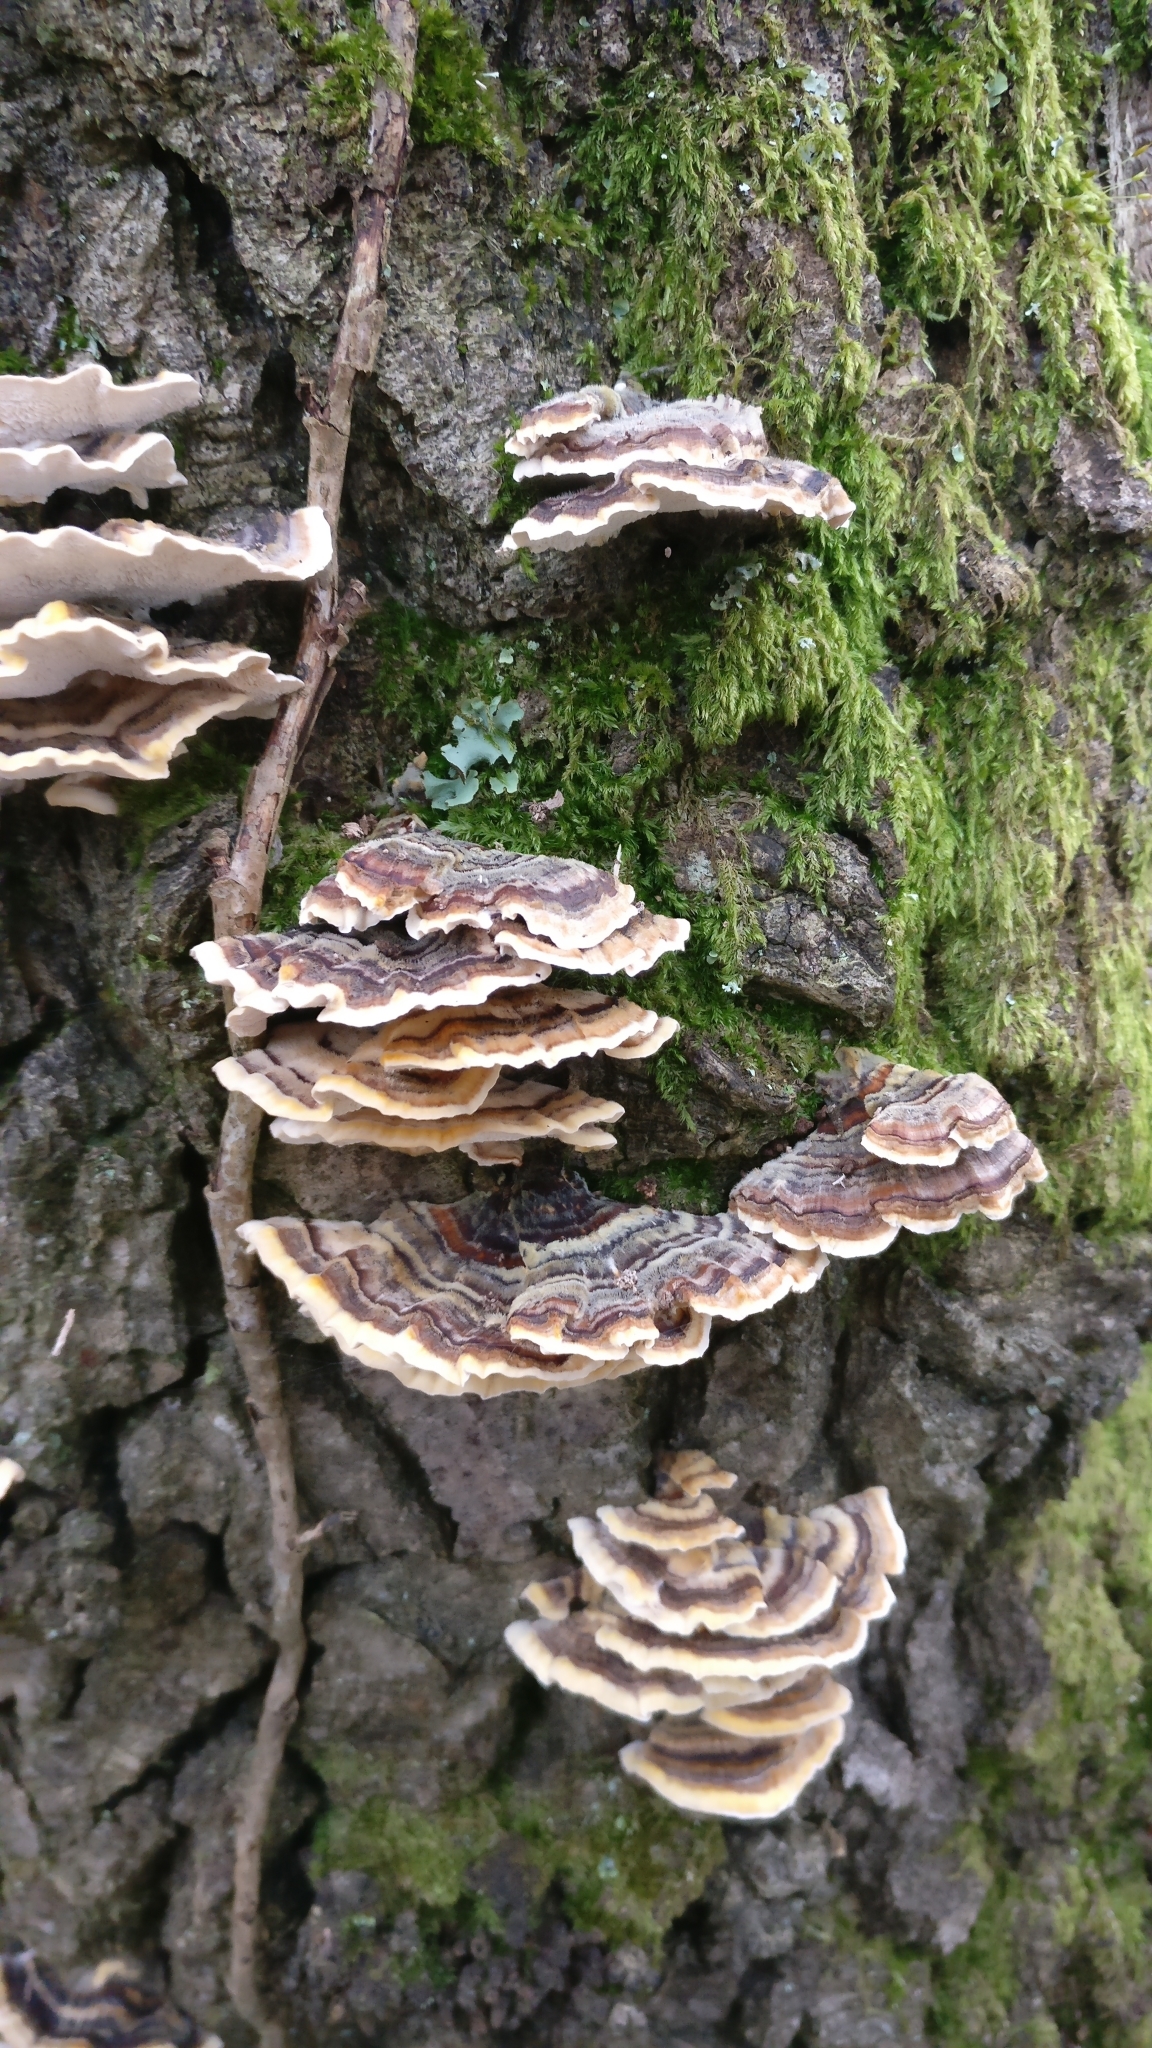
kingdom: Fungi
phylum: Basidiomycota
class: Agaricomycetes
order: Polyporales
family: Polyporaceae
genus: Trametes
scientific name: Trametes versicolor
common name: Turkeytail
